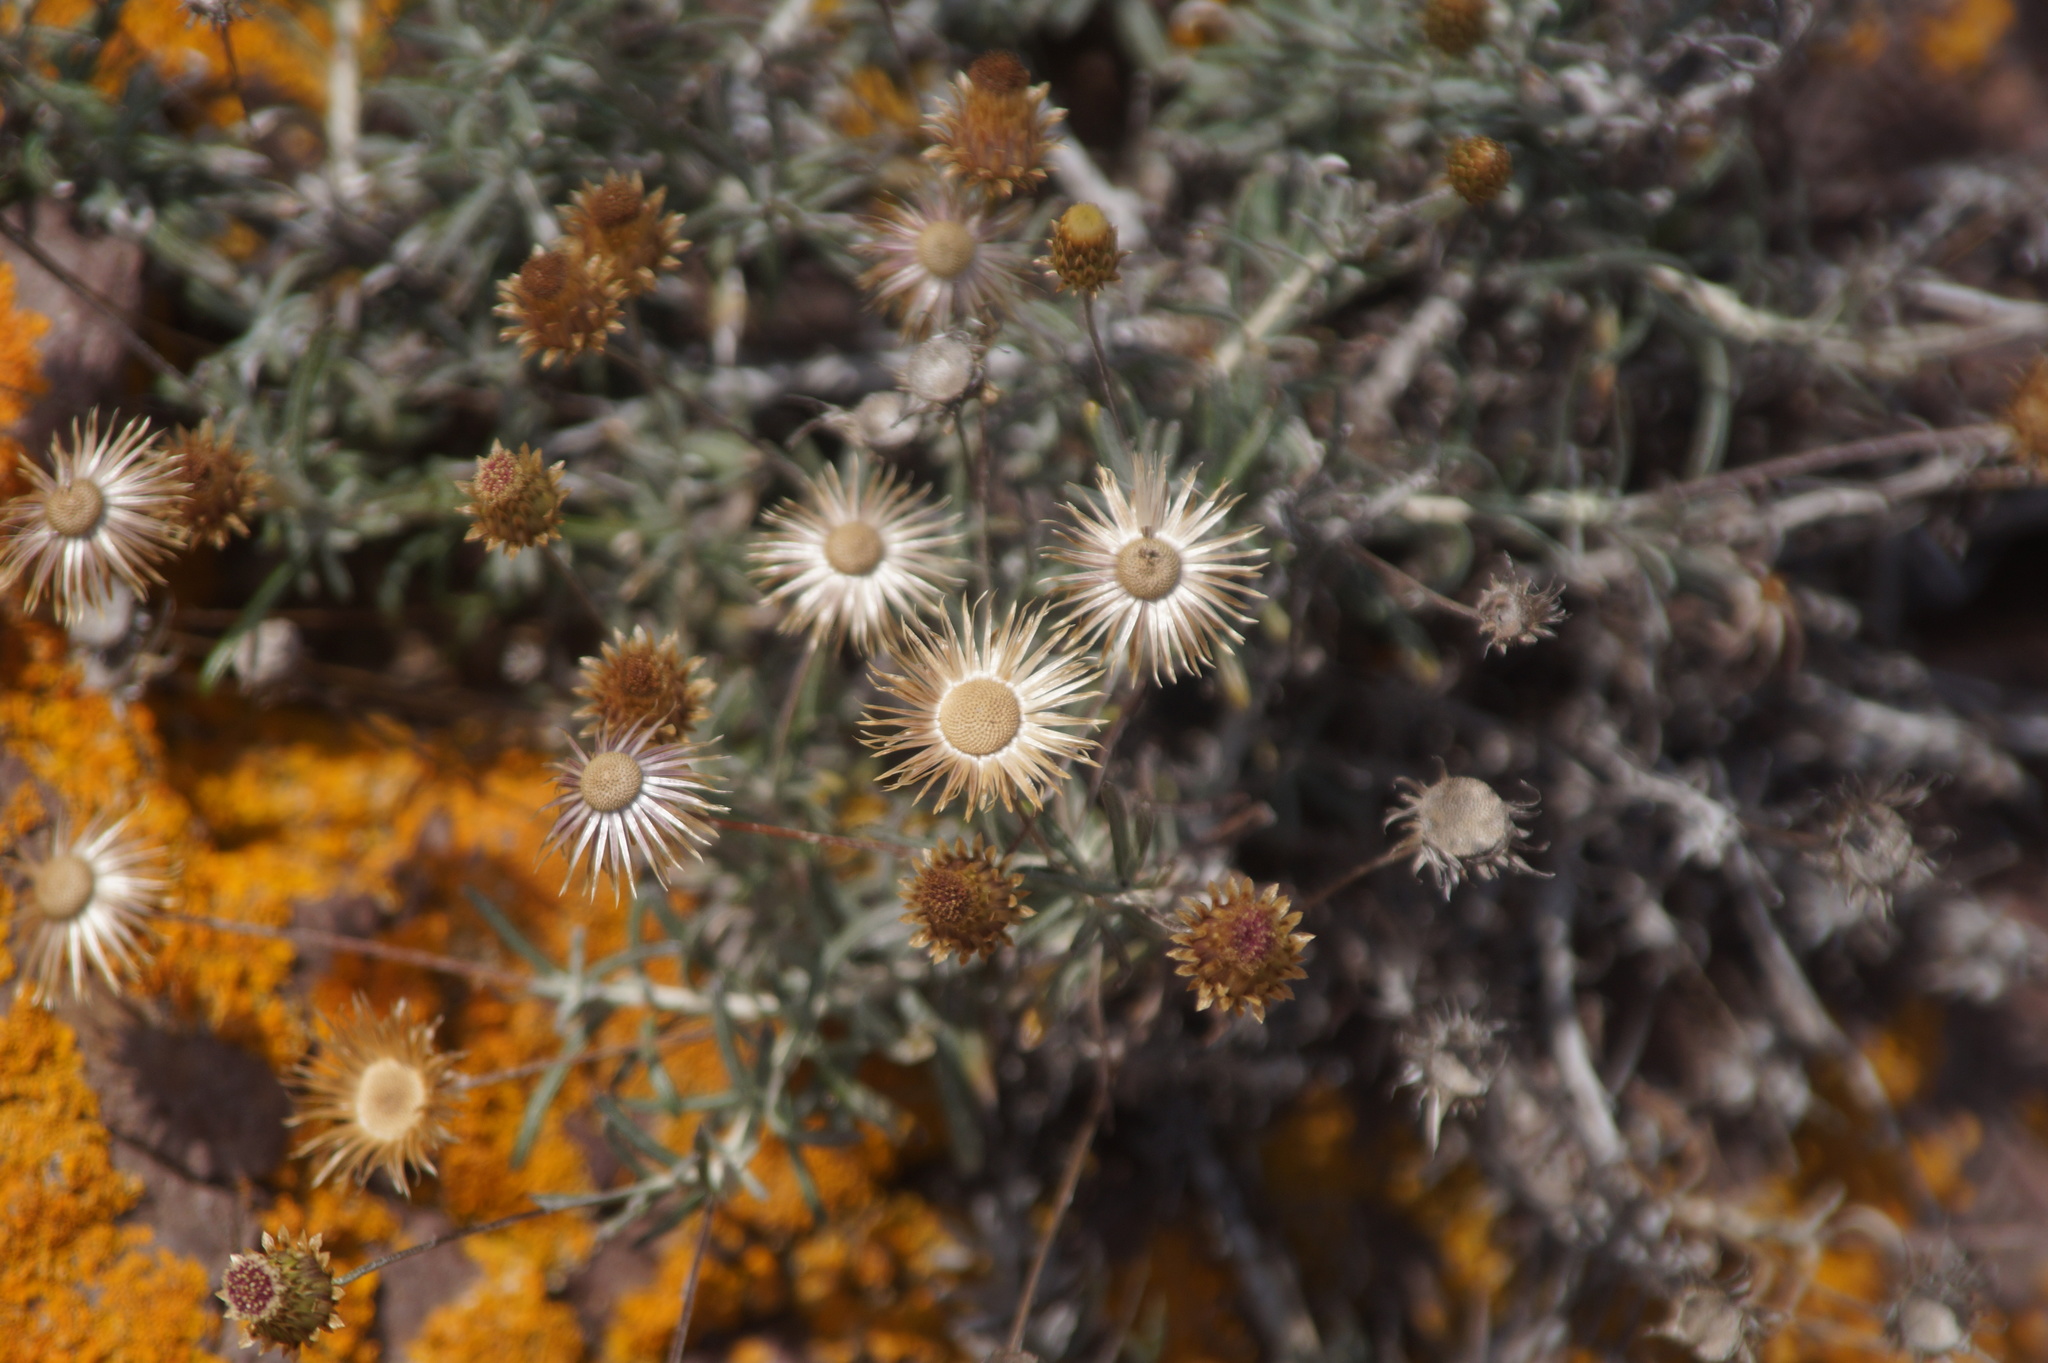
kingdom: Plantae
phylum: Tracheophyta
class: Magnoliopsida
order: Asterales
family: Asteraceae
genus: Phagnalon
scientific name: Phagnalon saxatile
